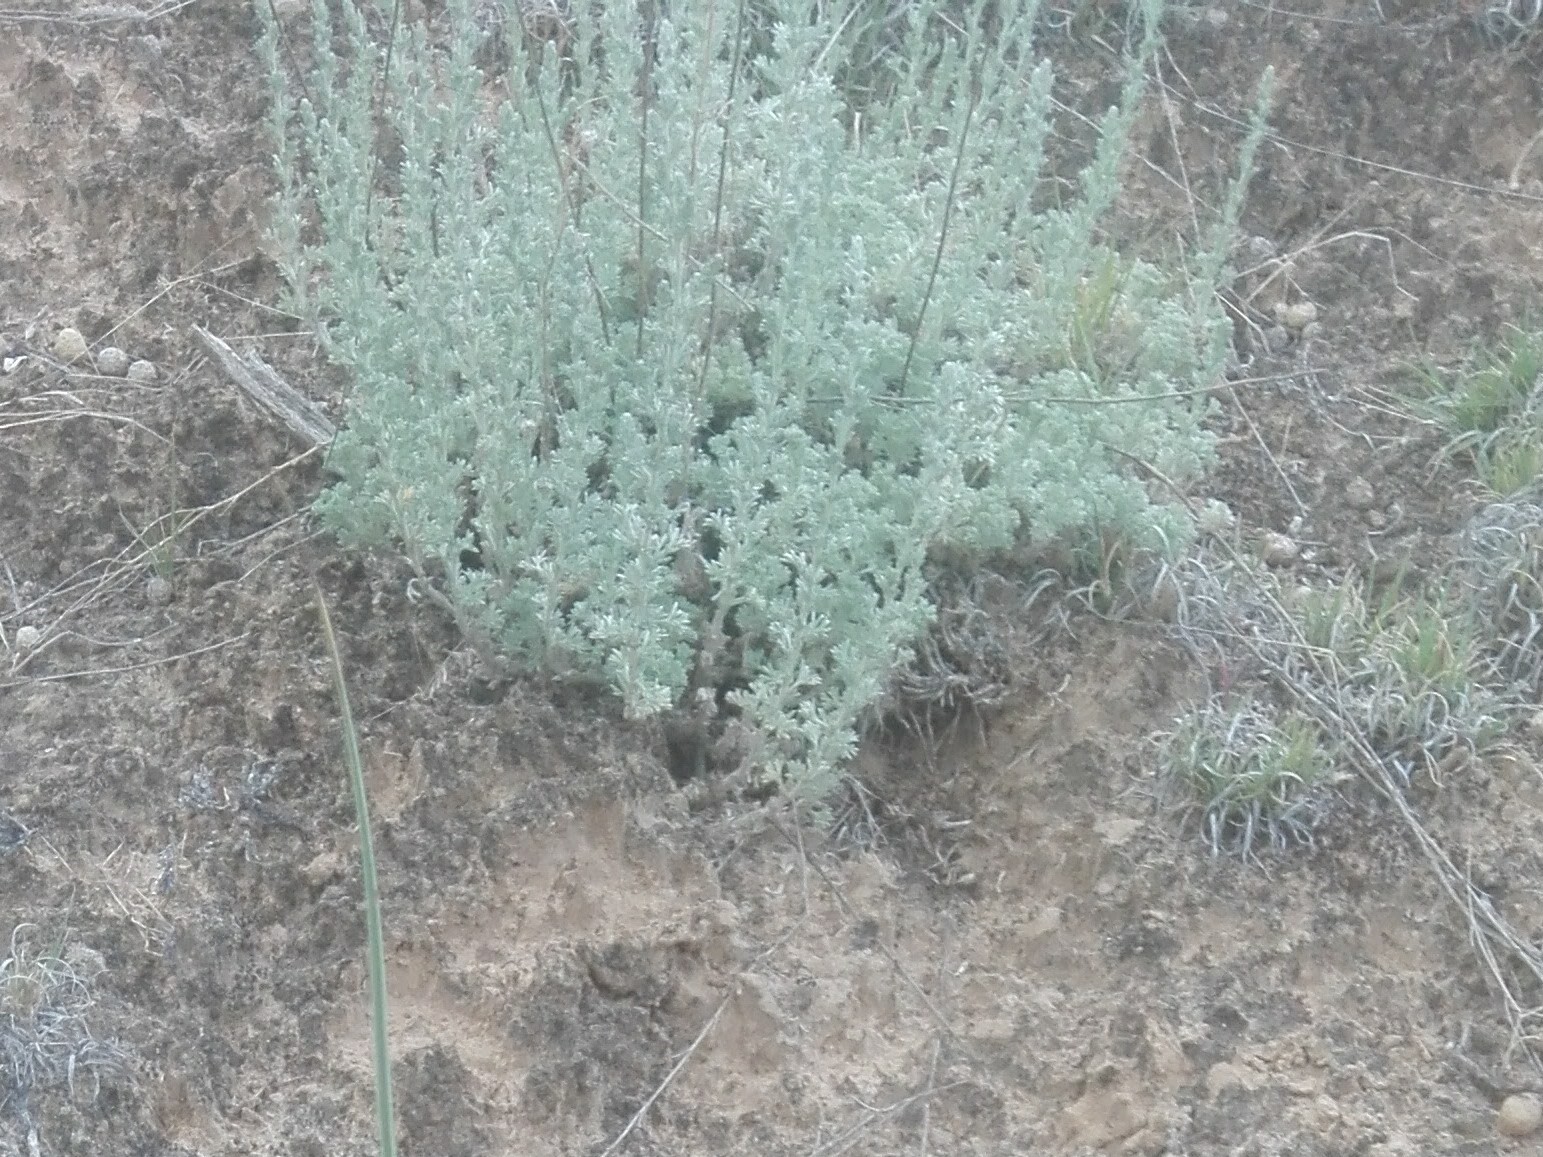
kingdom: Plantae
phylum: Tracheophyta
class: Magnoliopsida
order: Asterales
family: Asteraceae
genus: Artemisia
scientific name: Artemisia frigida
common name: Prairie sagewort
